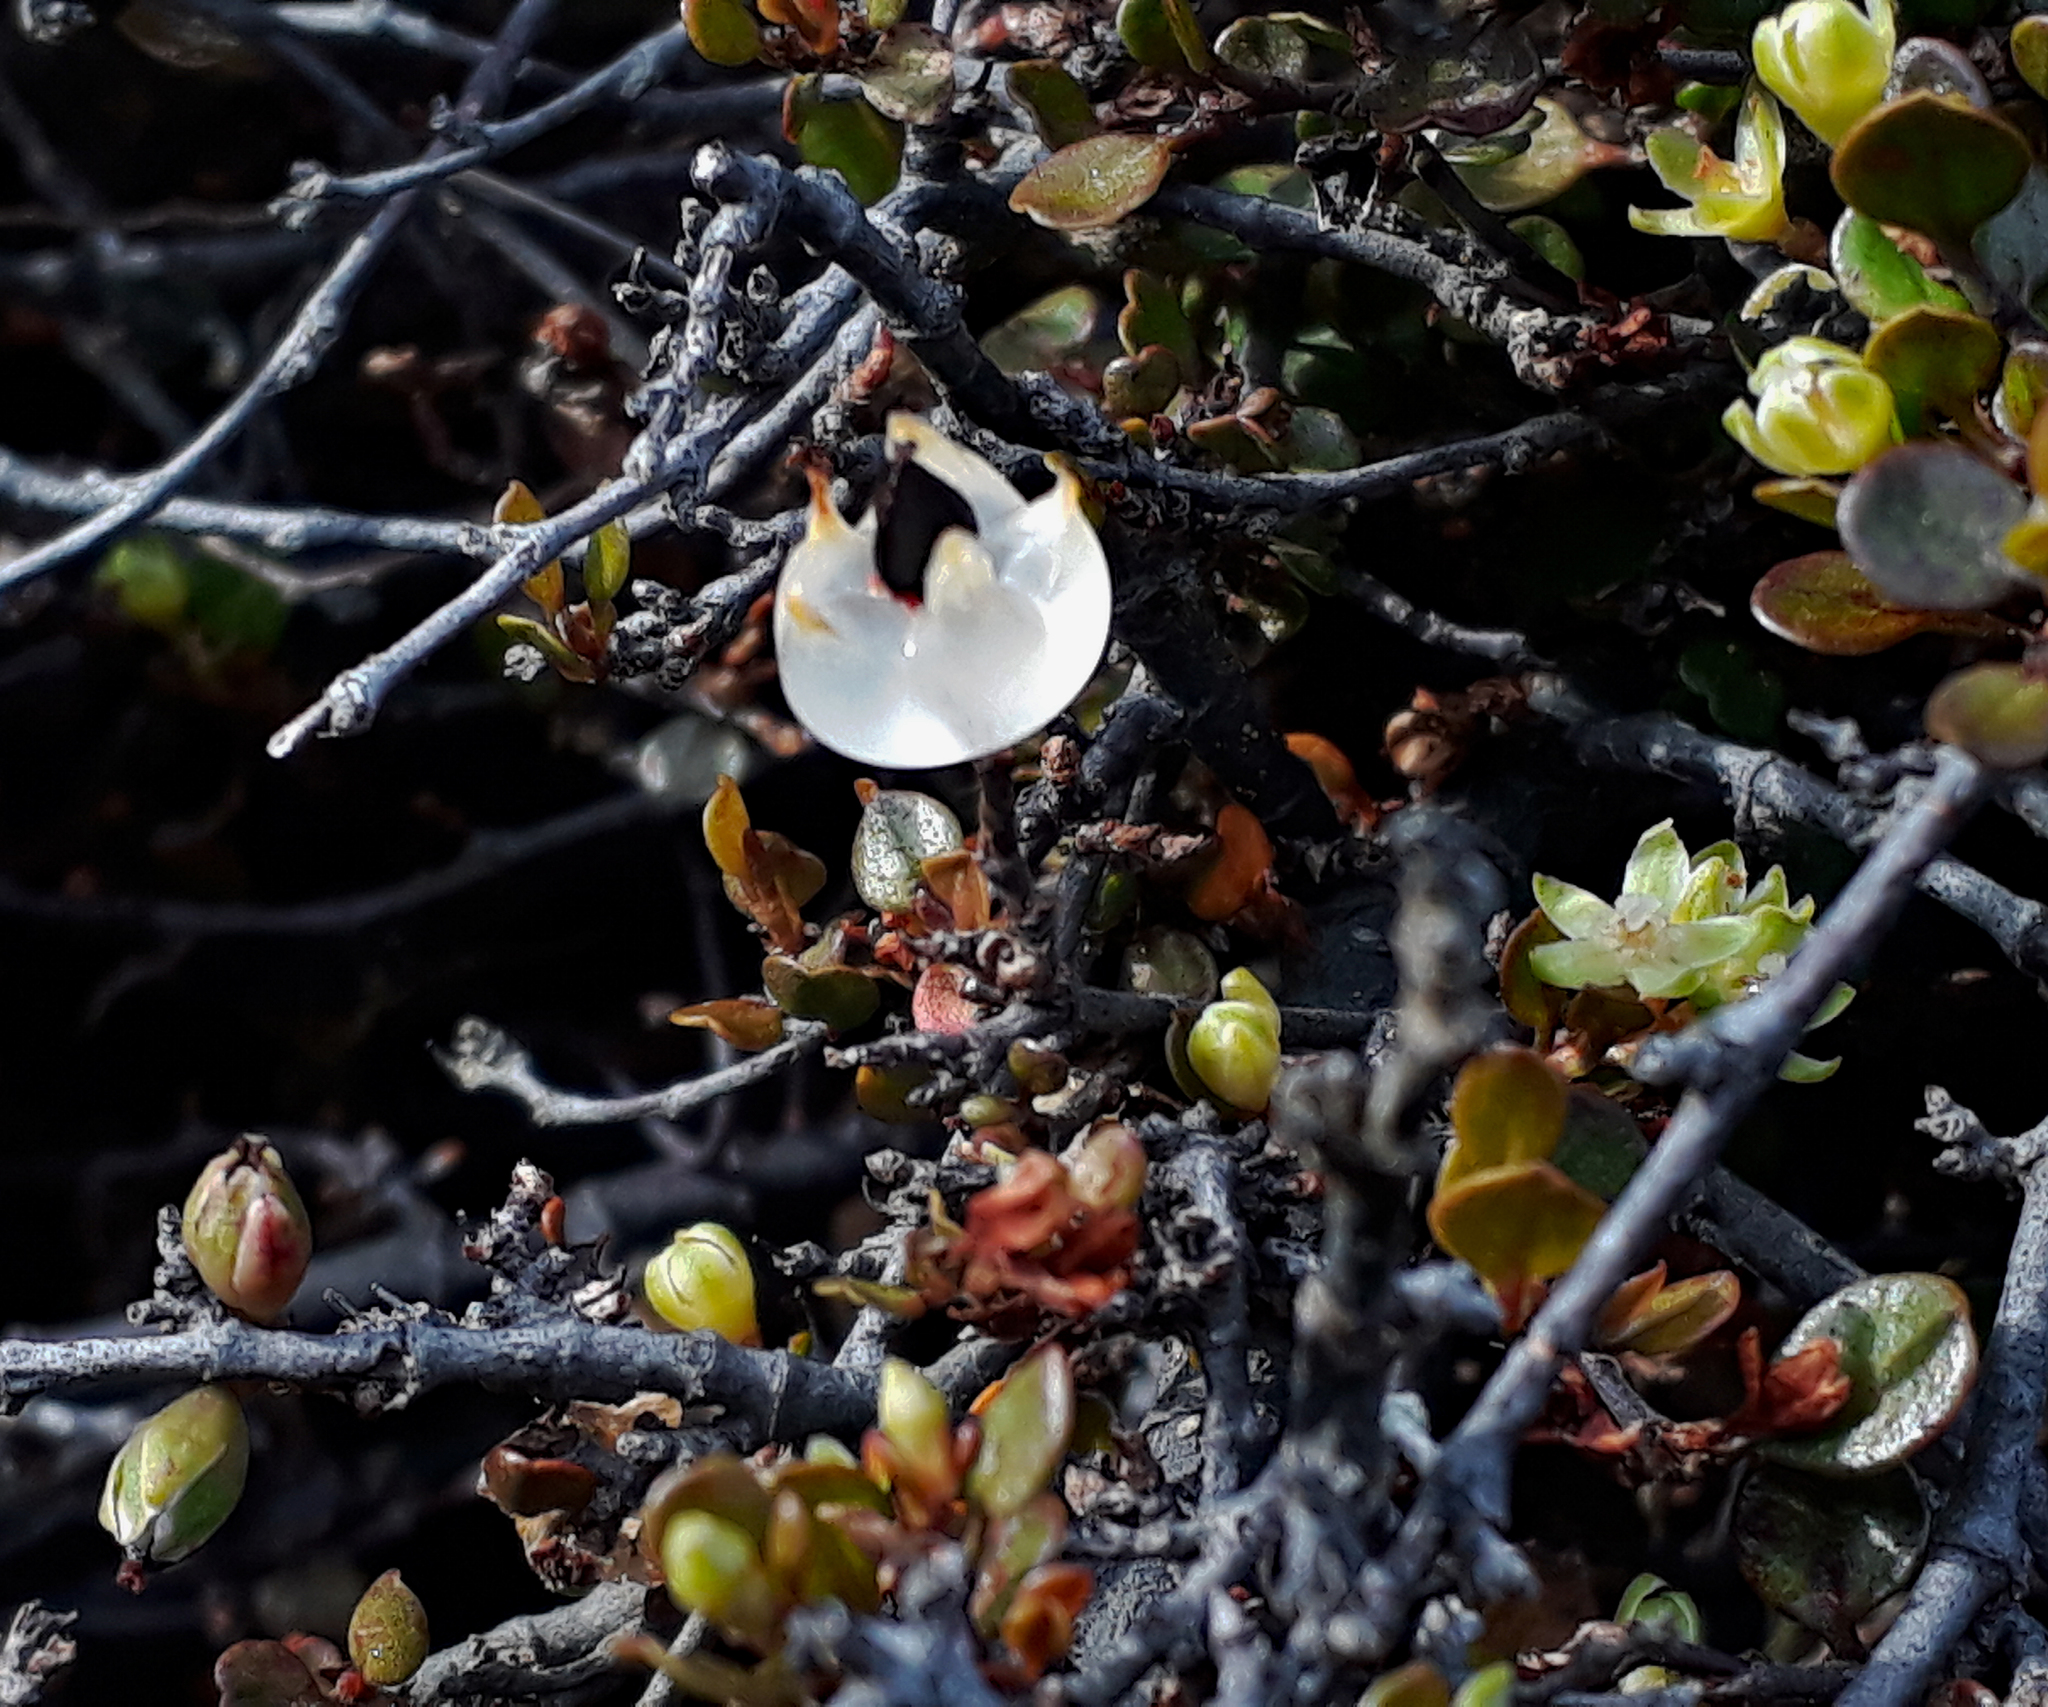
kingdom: Plantae
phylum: Tracheophyta
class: Magnoliopsida
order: Caryophyllales
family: Polygonaceae
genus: Muehlenbeckia
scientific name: Muehlenbeckia axillaris
